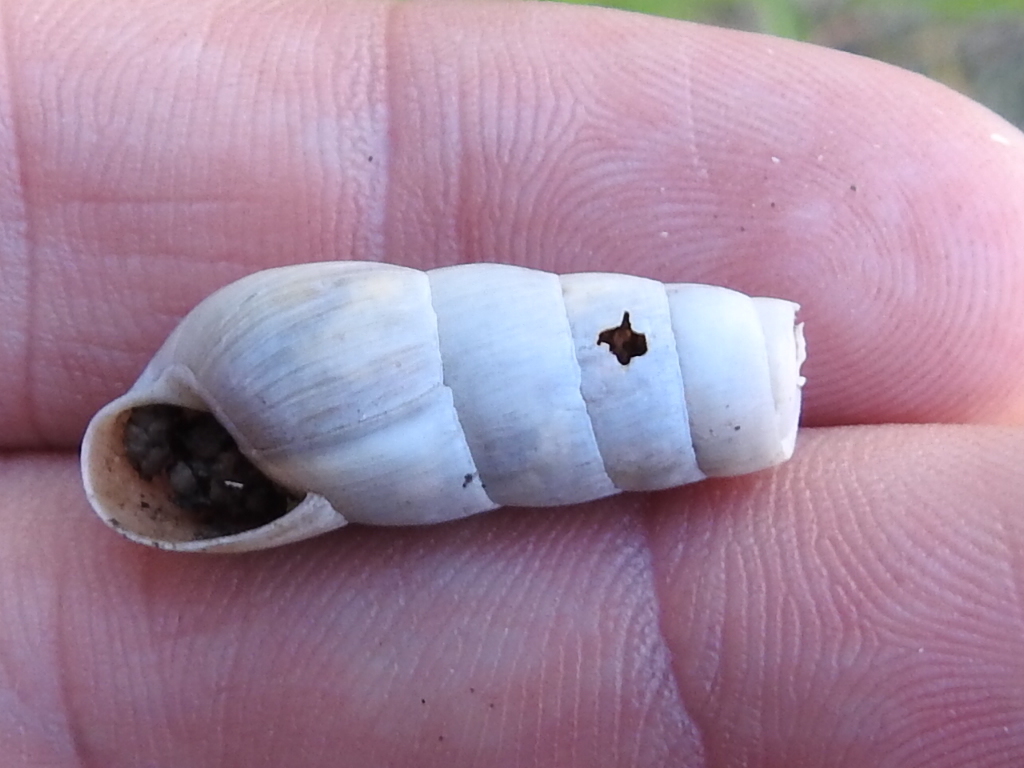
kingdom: Animalia
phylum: Mollusca
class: Gastropoda
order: Stylommatophora
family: Achatinidae
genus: Rumina
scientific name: Rumina decollata
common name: Decollate snail
